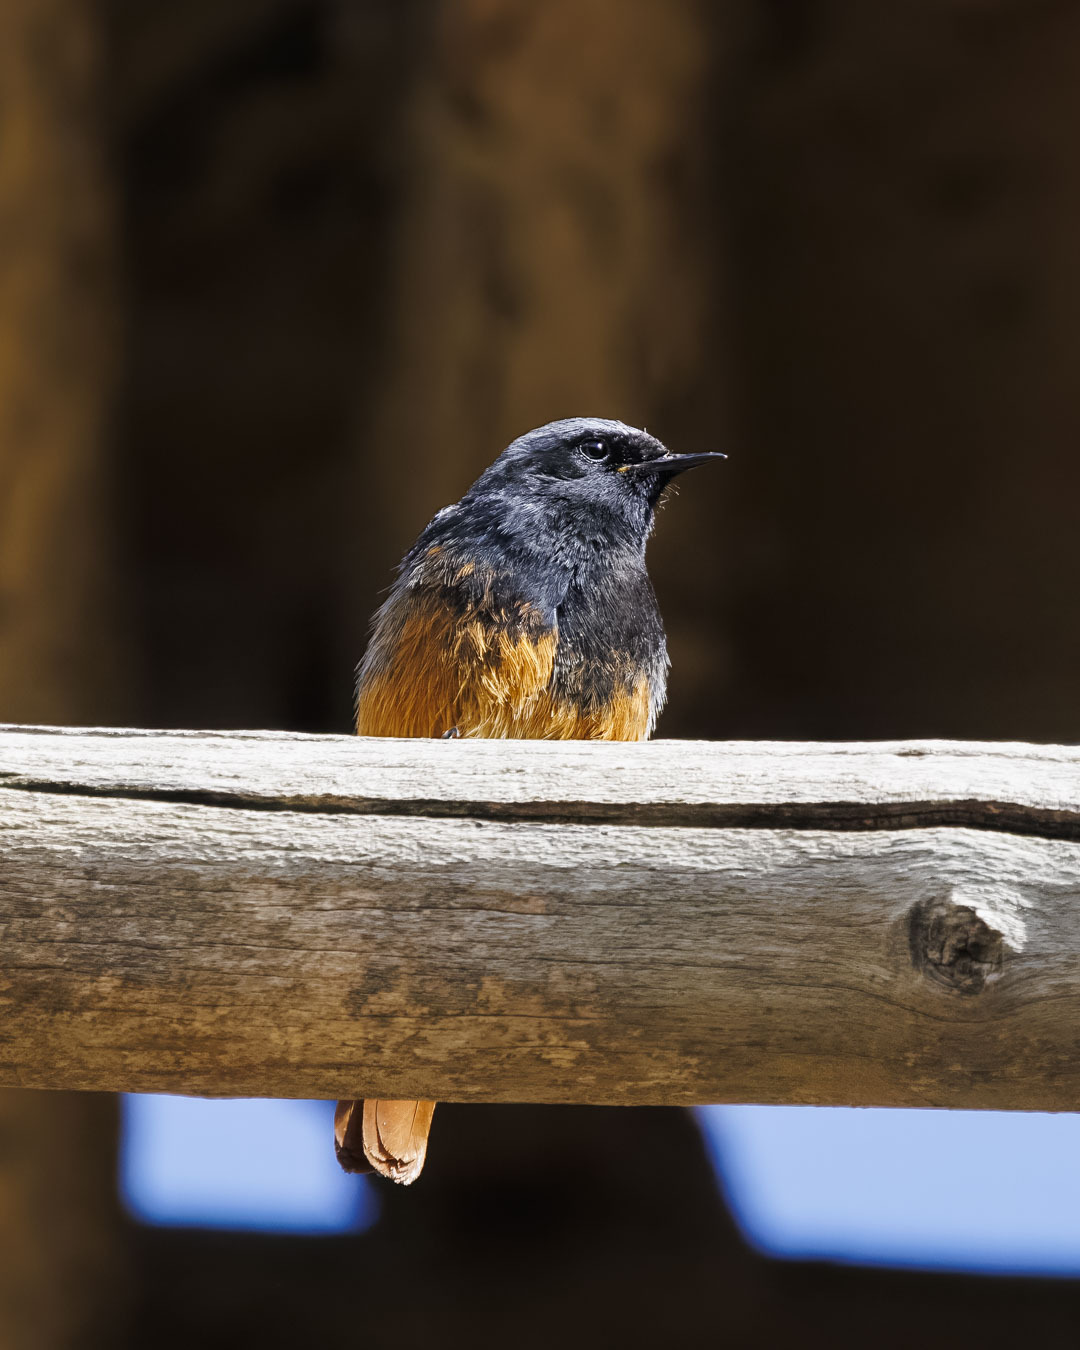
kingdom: Animalia
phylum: Chordata
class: Aves
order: Passeriformes
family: Muscicapidae
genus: Phoenicurus
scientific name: Phoenicurus ochruros
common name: Black redstart
